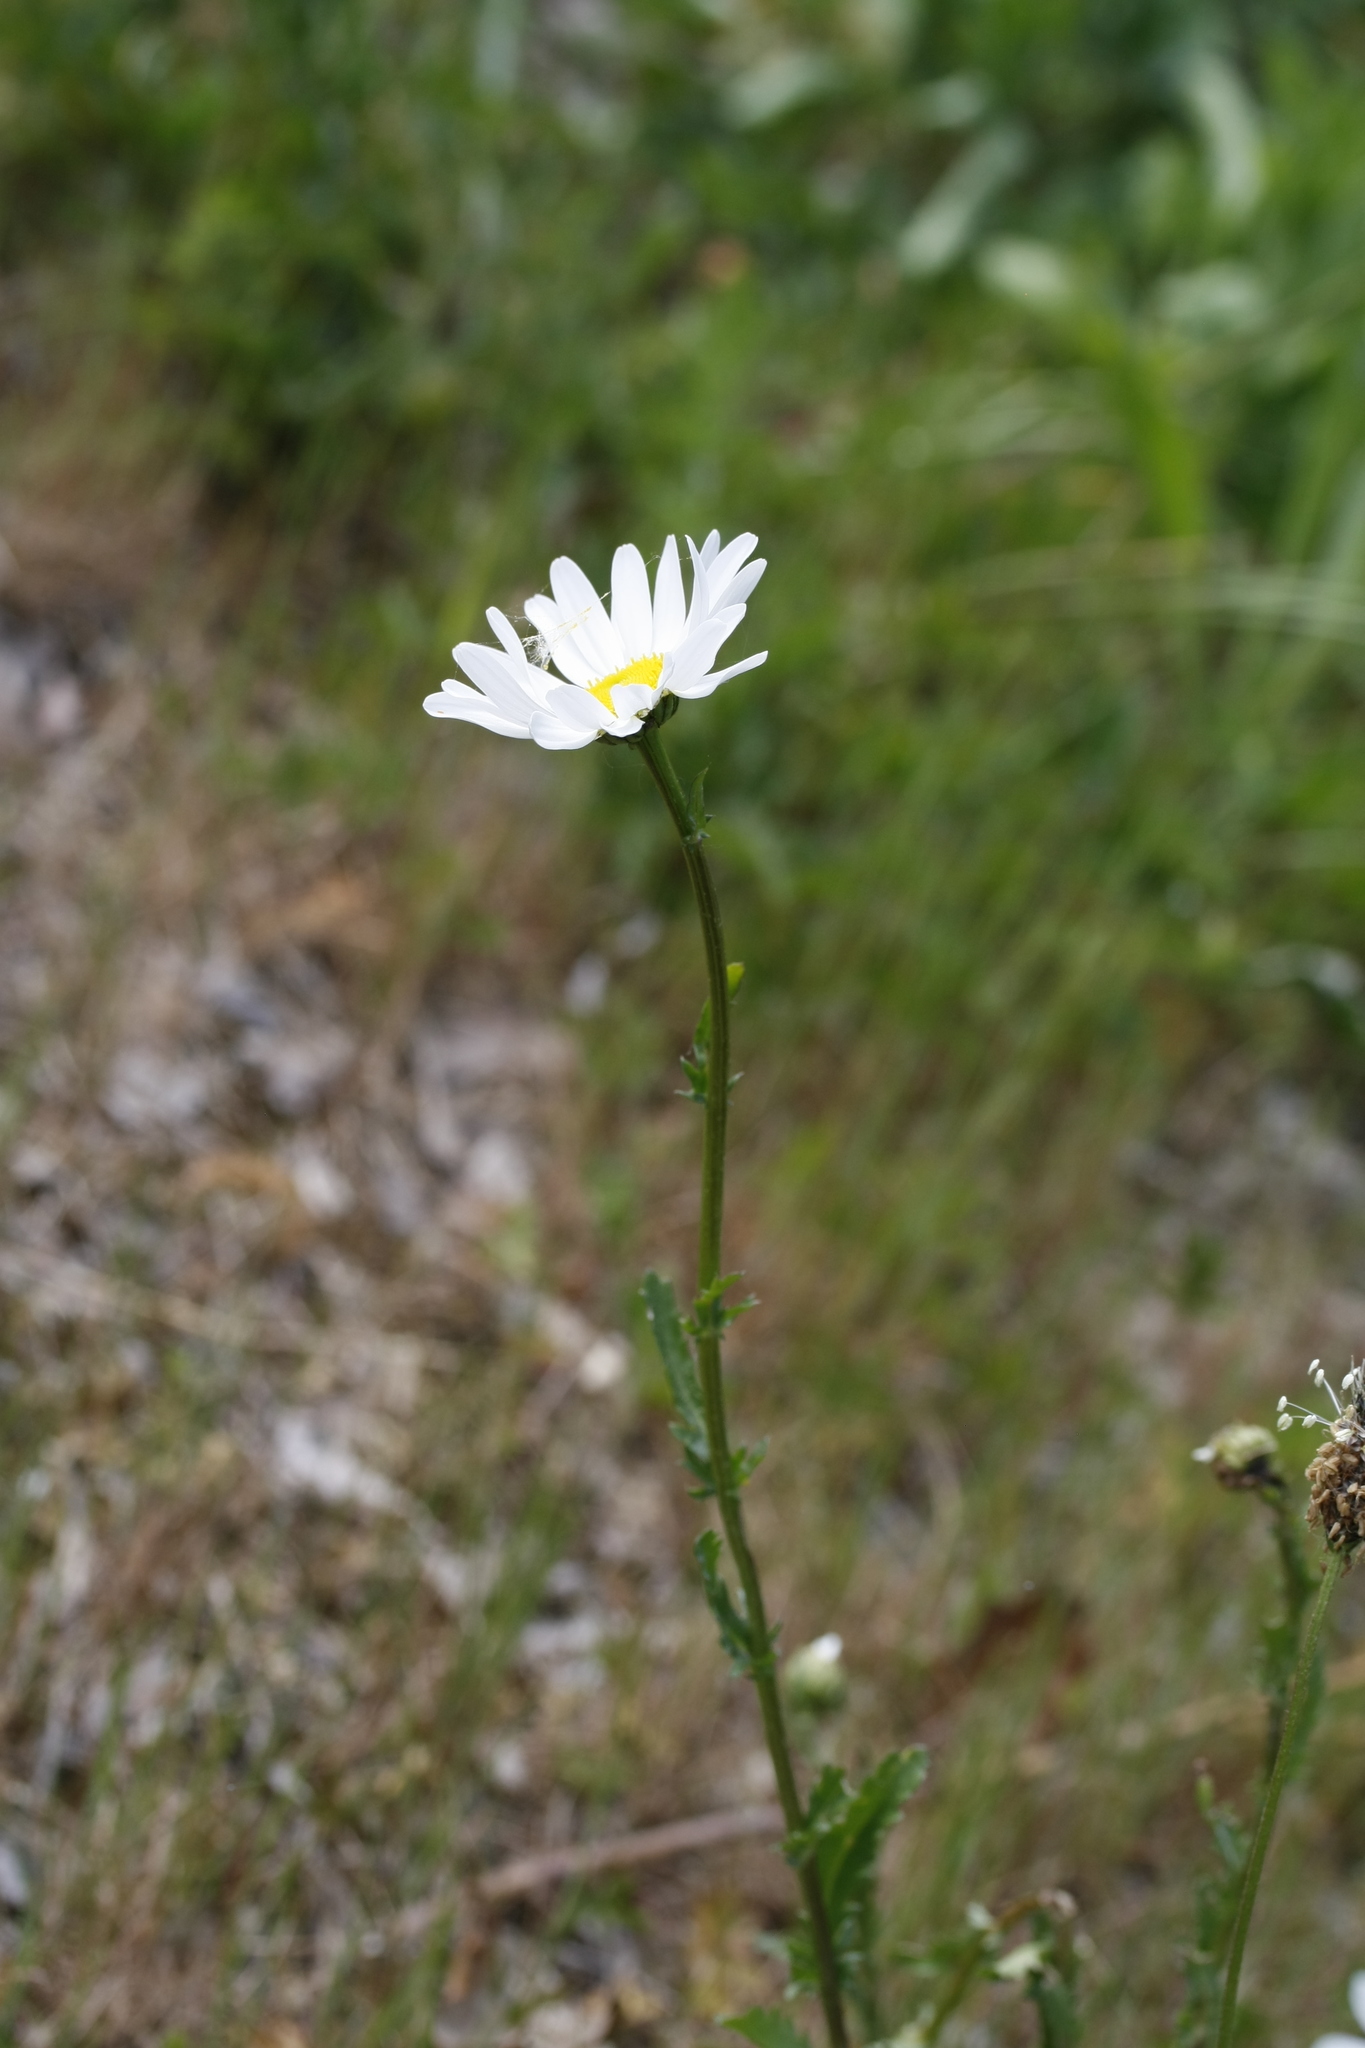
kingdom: Plantae
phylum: Tracheophyta
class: Magnoliopsida
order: Asterales
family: Asteraceae
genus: Leucanthemum
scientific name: Leucanthemum vulgare
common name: Oxeye daisy
